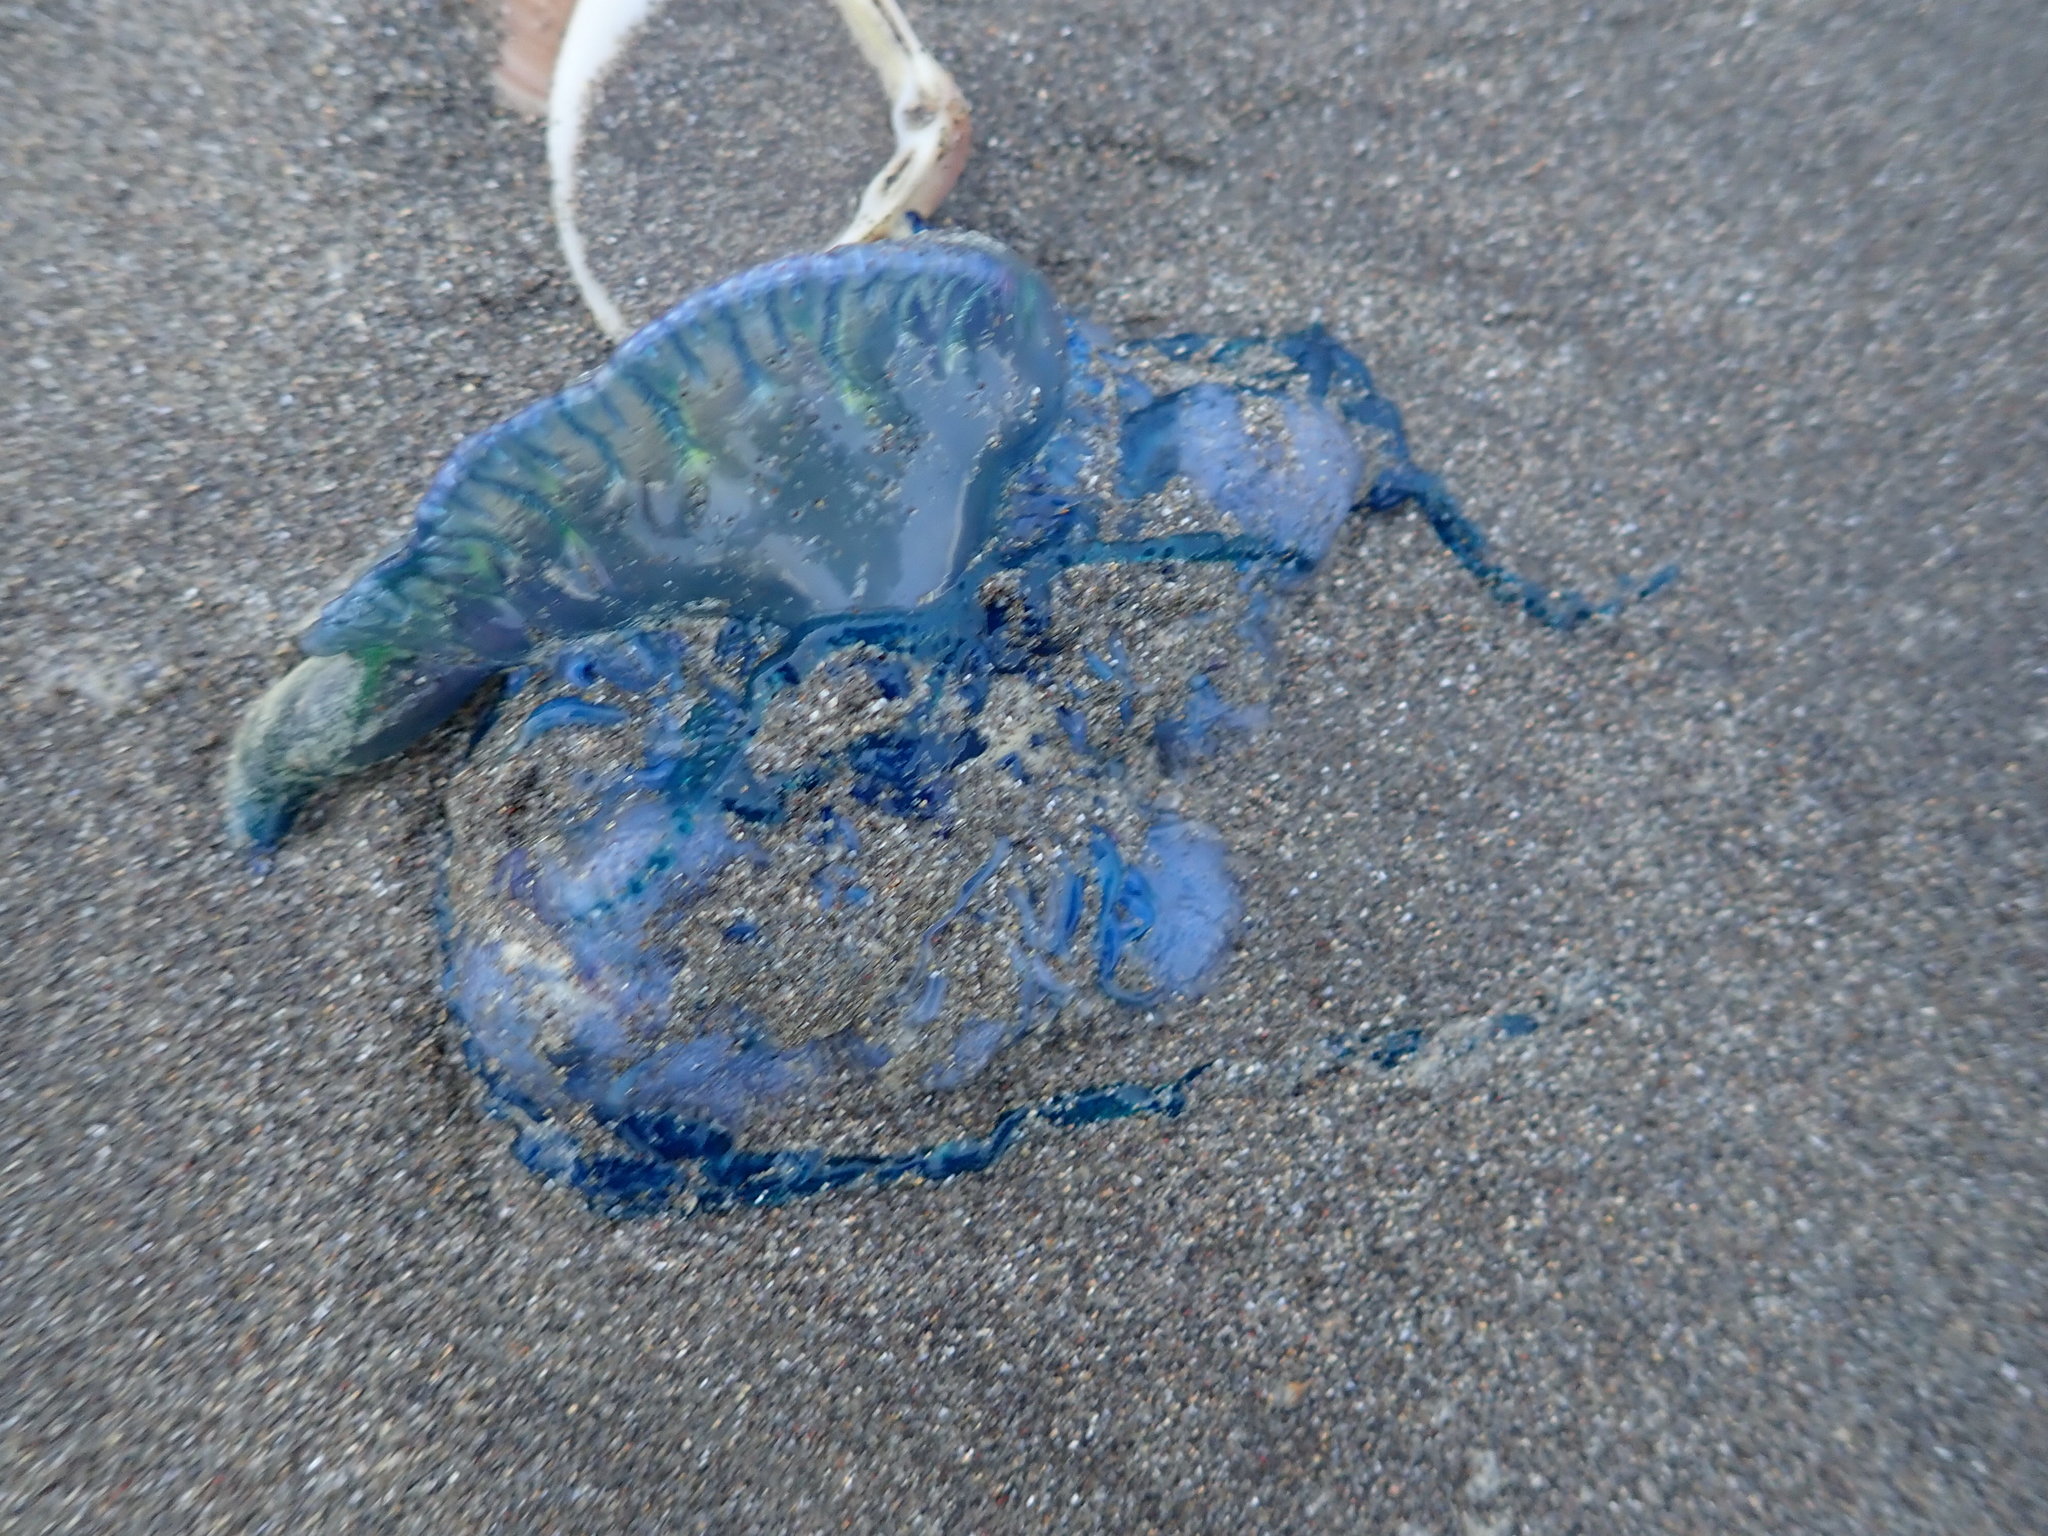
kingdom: Animalia
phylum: Cnidaria
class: Hydrozoa
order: Siphonophorae
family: Physaliidae
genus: Physalia
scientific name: Physalia physalis
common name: Portuguese man-of-war
